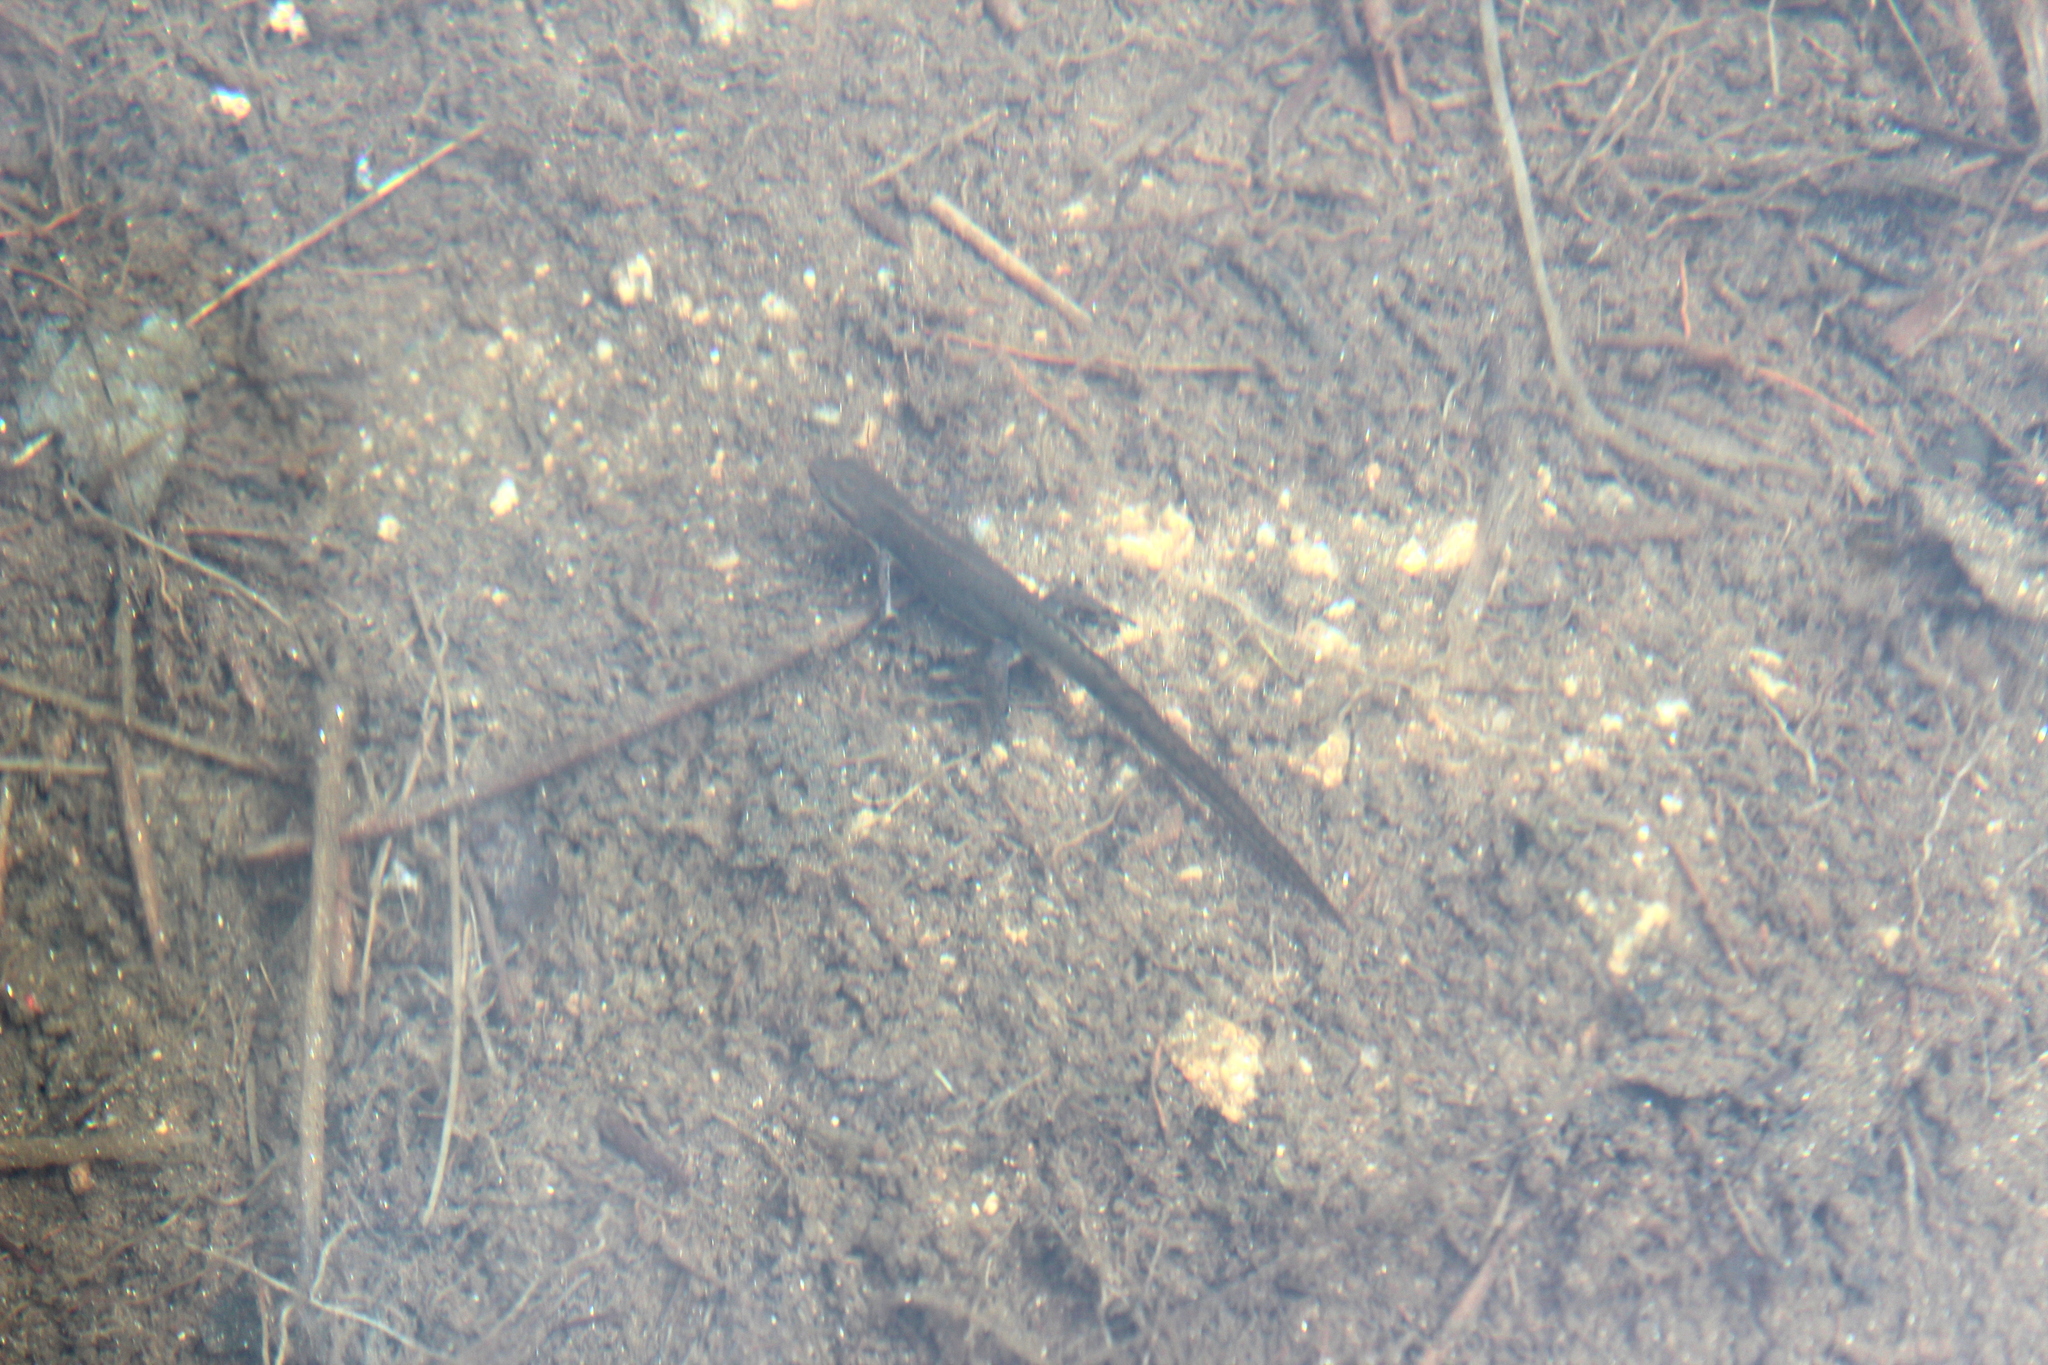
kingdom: Animalia
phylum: Chordata
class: Amphibia
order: Caudata
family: Salamandridae
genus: Notophthalmus
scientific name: Notophthalmus viridescens
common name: Eastern newt
